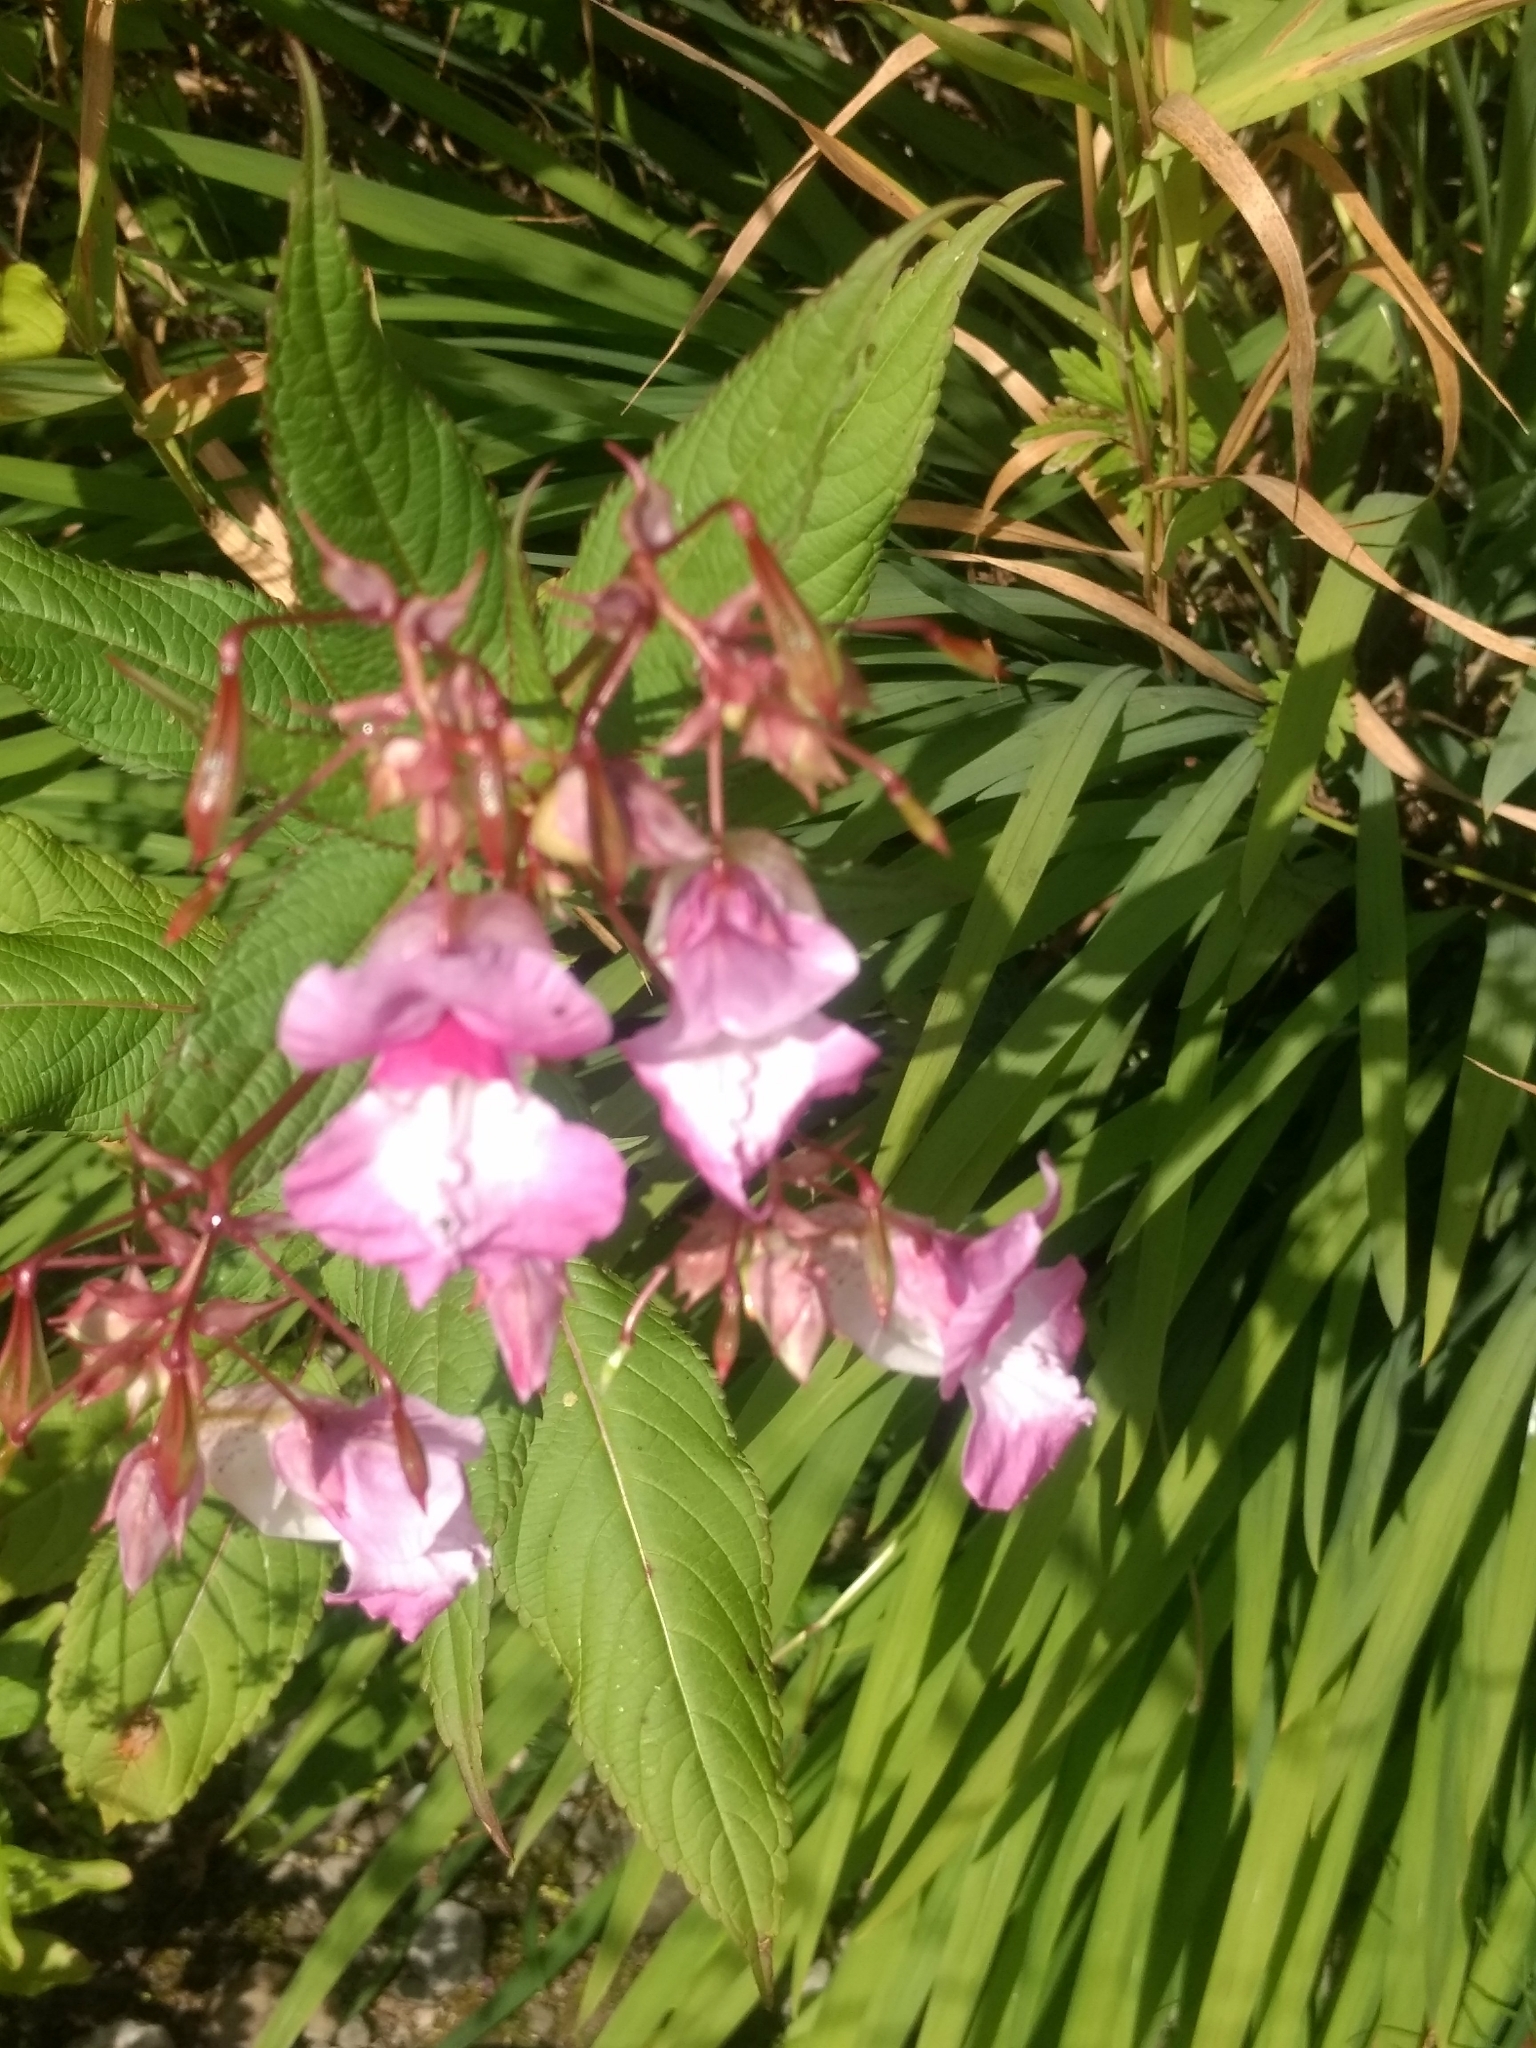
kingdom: Plantae
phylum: Tracheophyta
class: Magnoliopsida
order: Ericales
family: Balsaminaceae
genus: Impatiens
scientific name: Impatiens glandulifera
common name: Himalayan balsam
